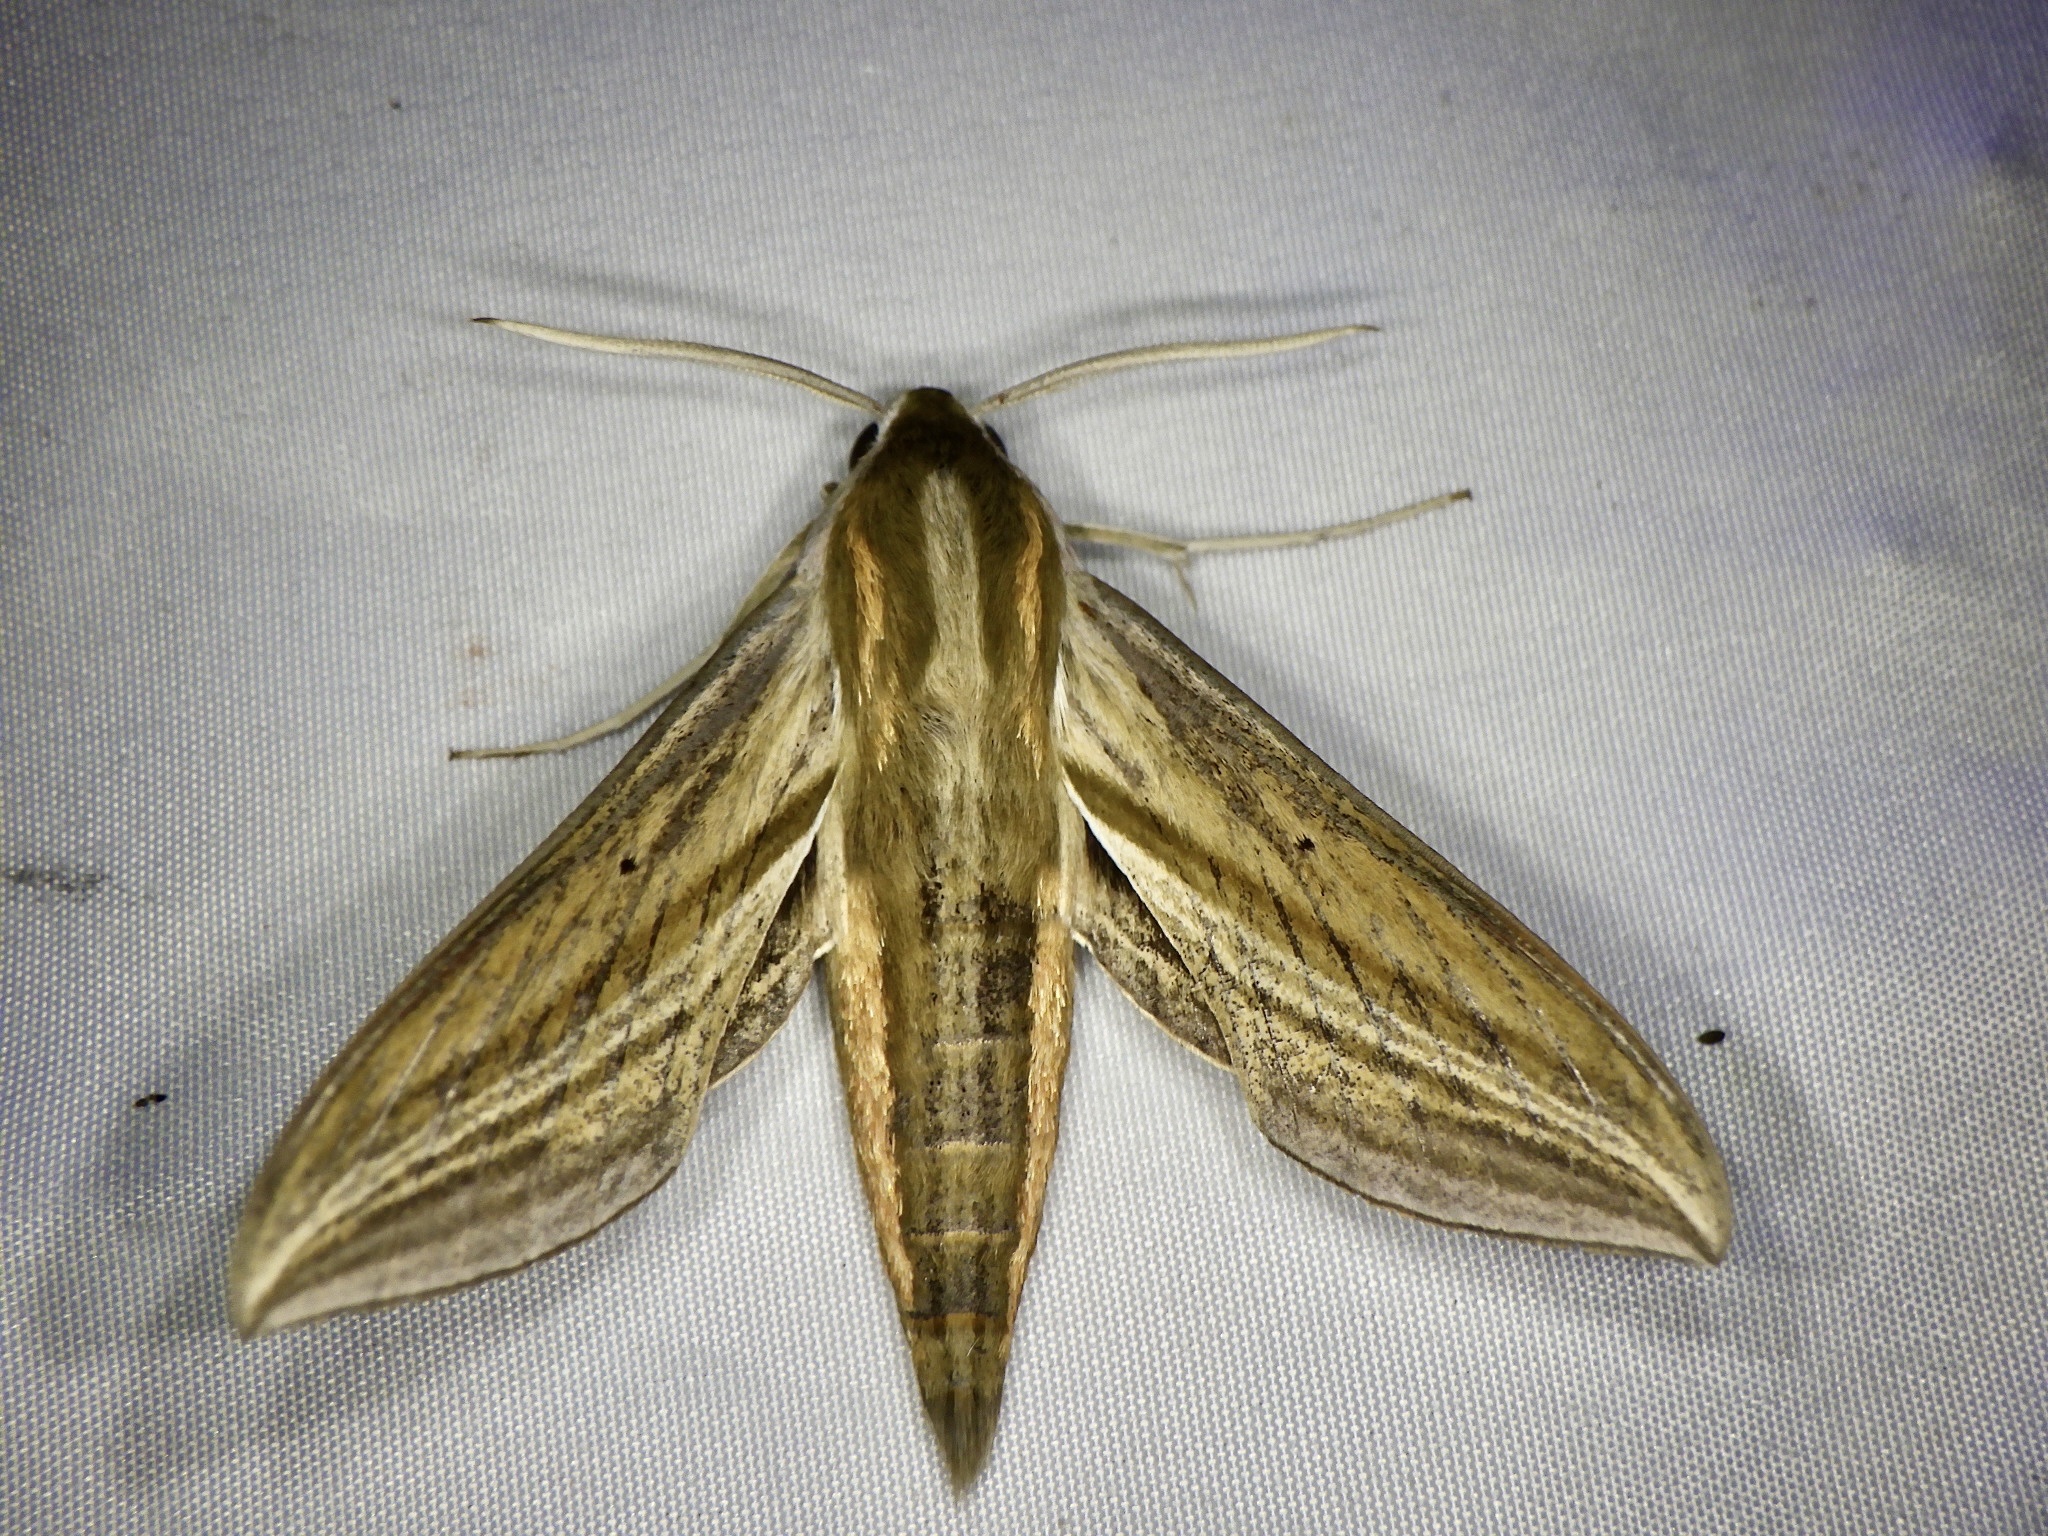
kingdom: Animalia
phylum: Arthropoda
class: Insecta
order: Lepidoptera
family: Sphingidae
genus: Theretra
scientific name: Theretra japonica
